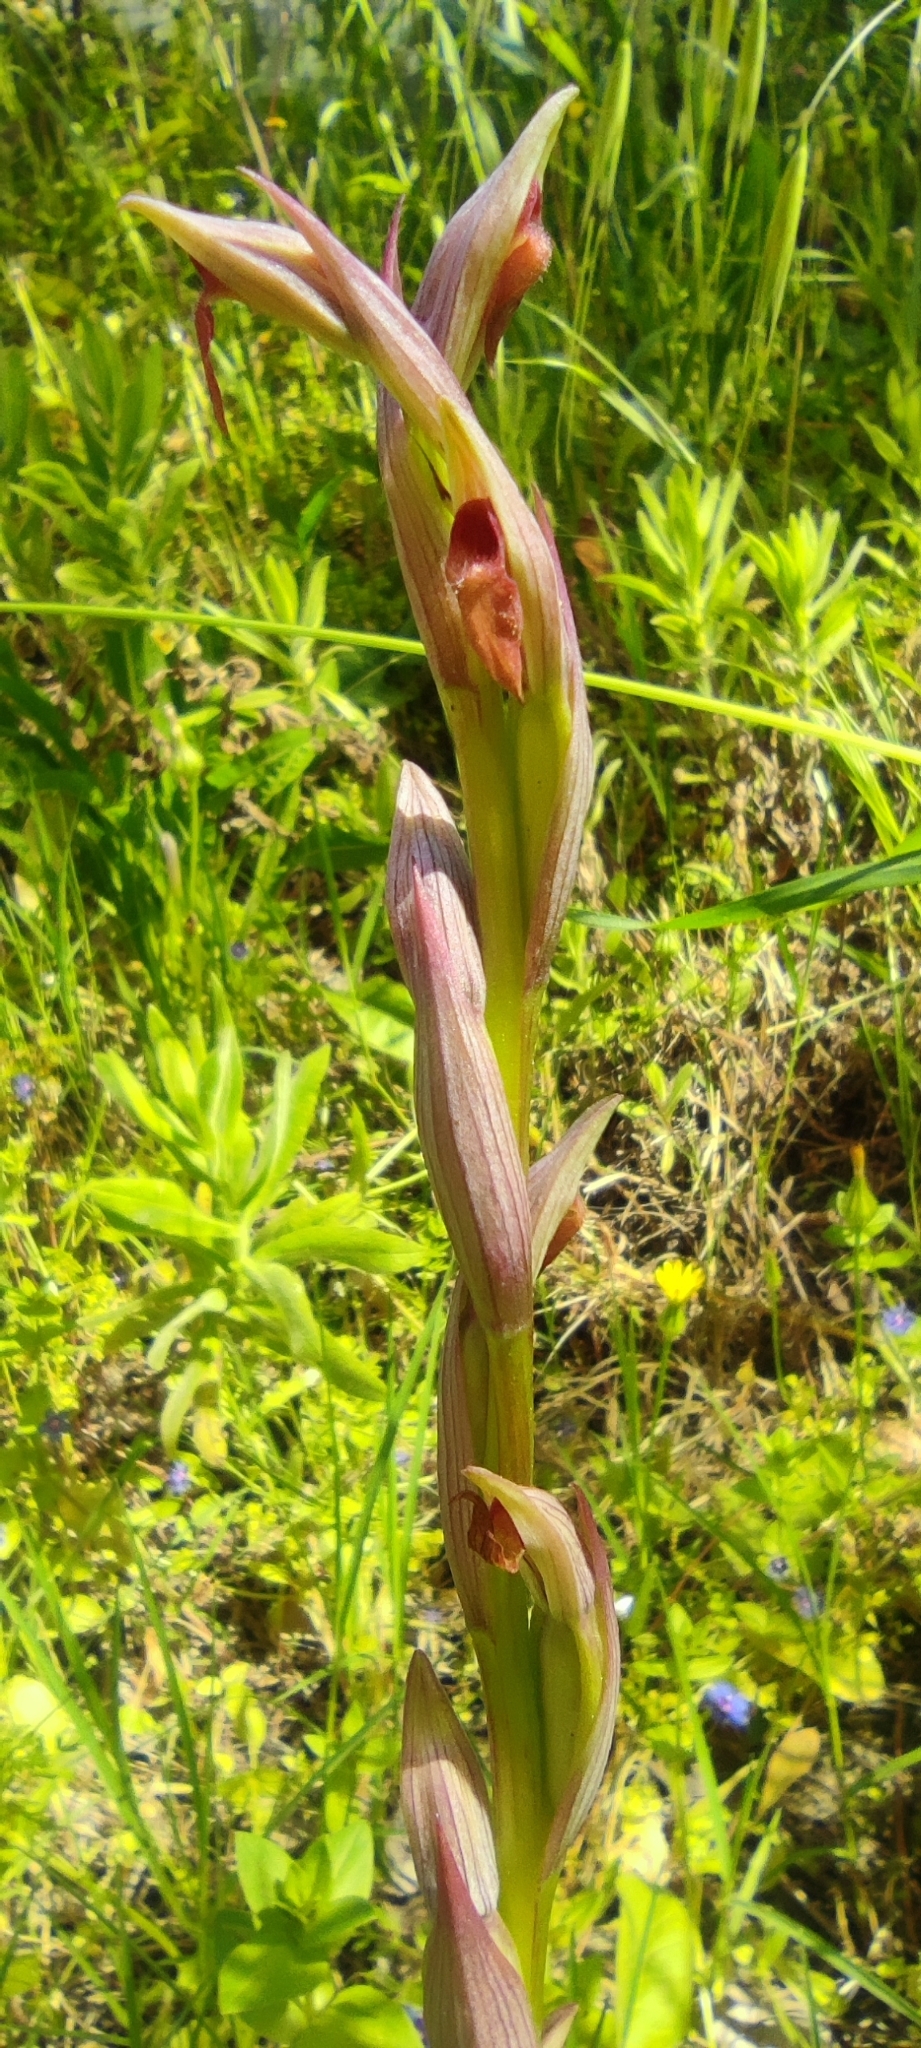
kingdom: Plantae
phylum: Tracheophyta
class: Liliopsida
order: Asparagales
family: Orchidaceae
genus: Serapias
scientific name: Serapias parviflora
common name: Small-flowered tongue-orchid
